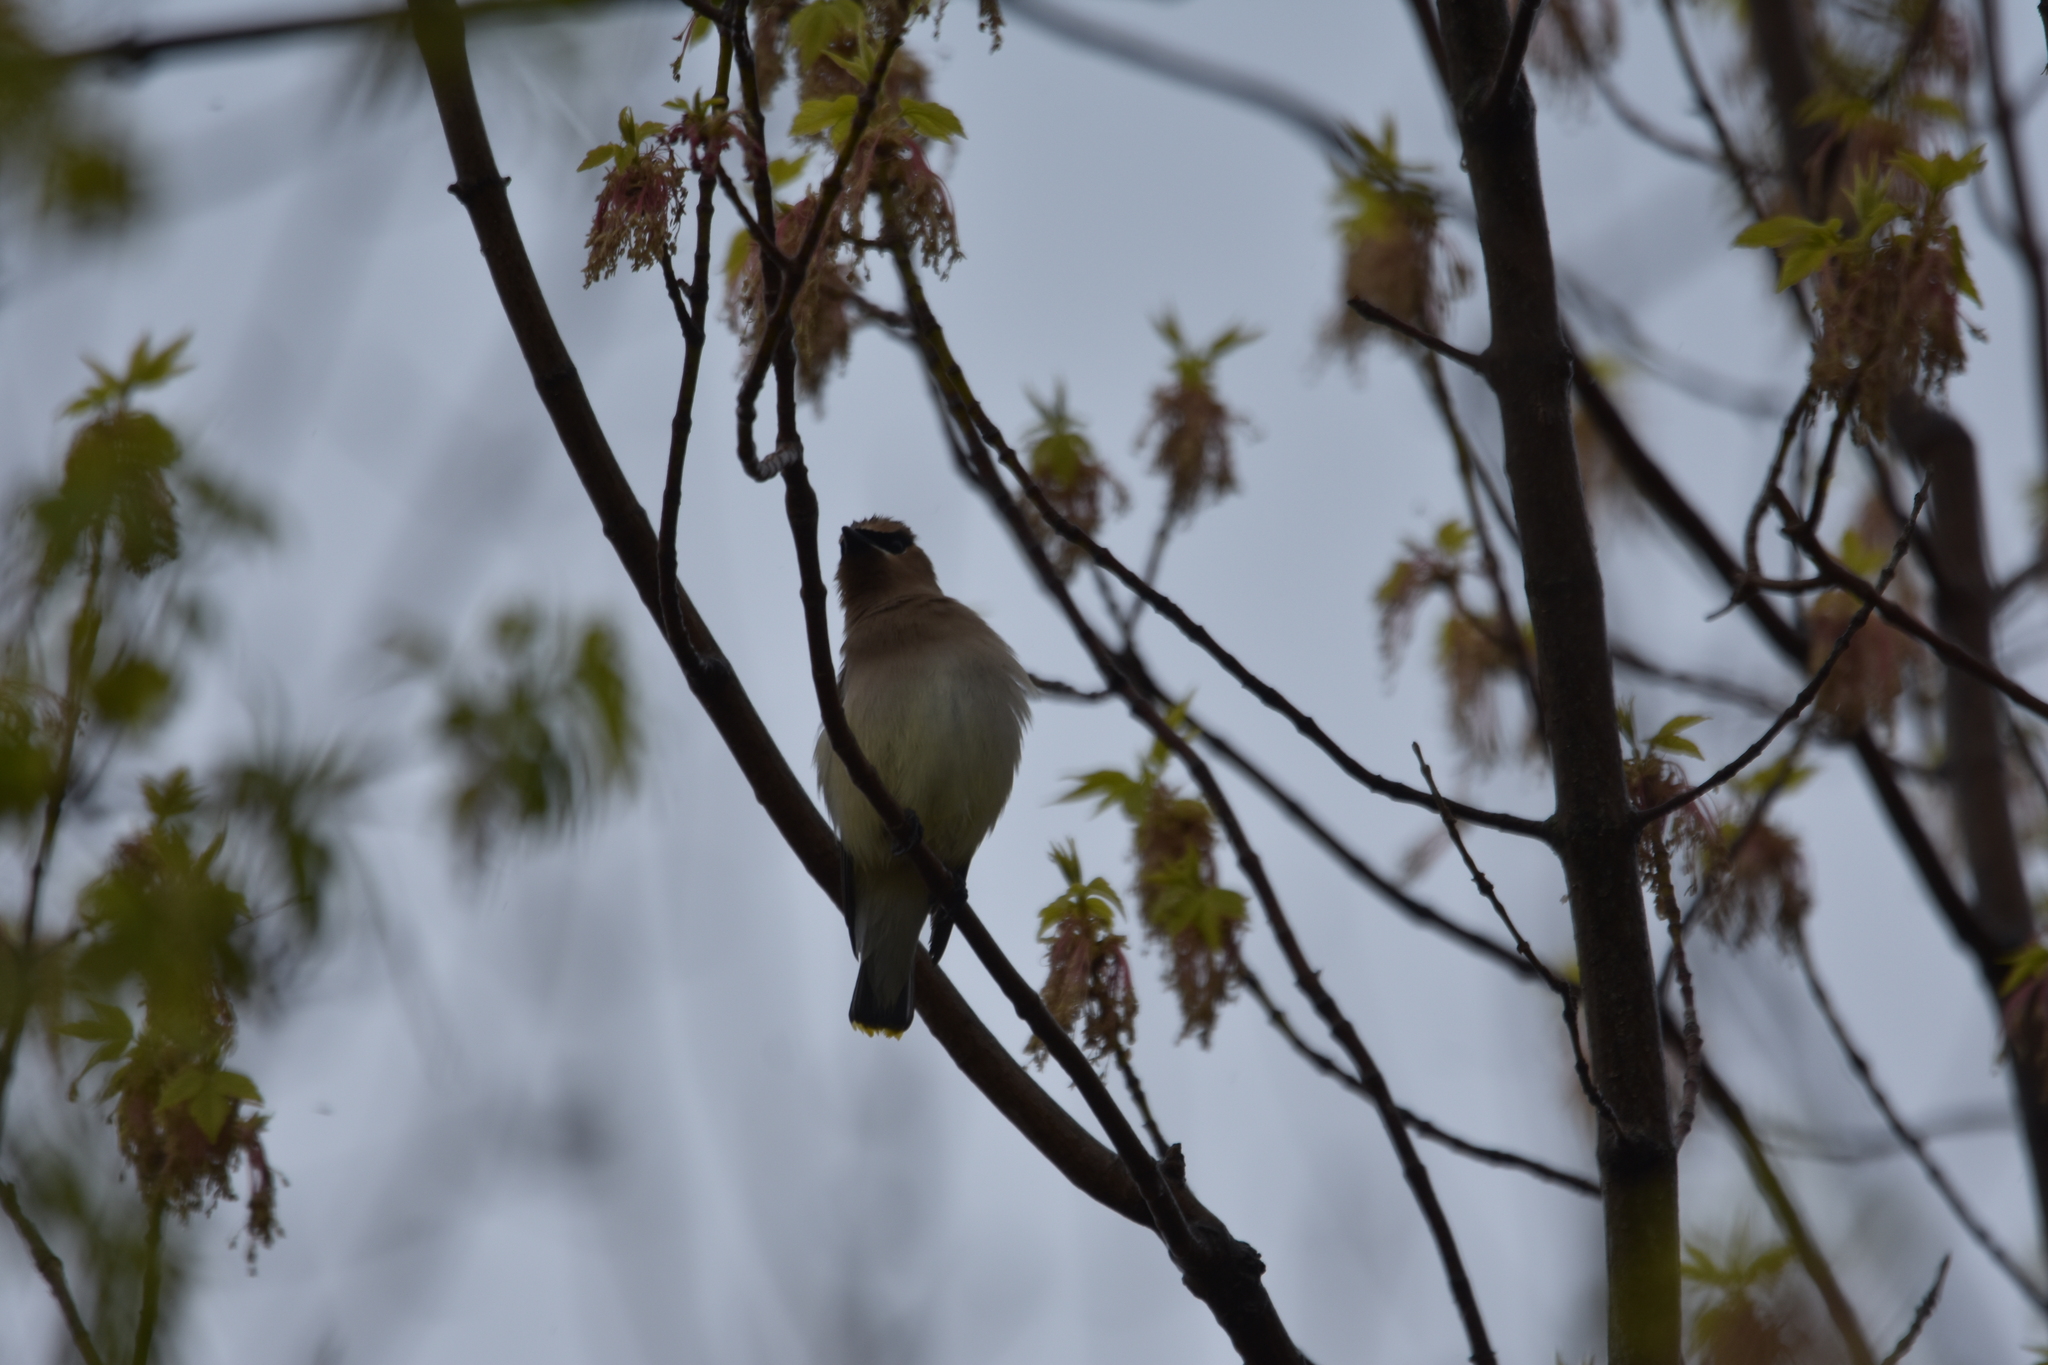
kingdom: Animalia
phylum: Chordata
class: Aves
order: Passeriformes
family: Bombycillidae
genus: Bombycilla
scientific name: Bombycilla cedrorum
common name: Cedar waxwing
